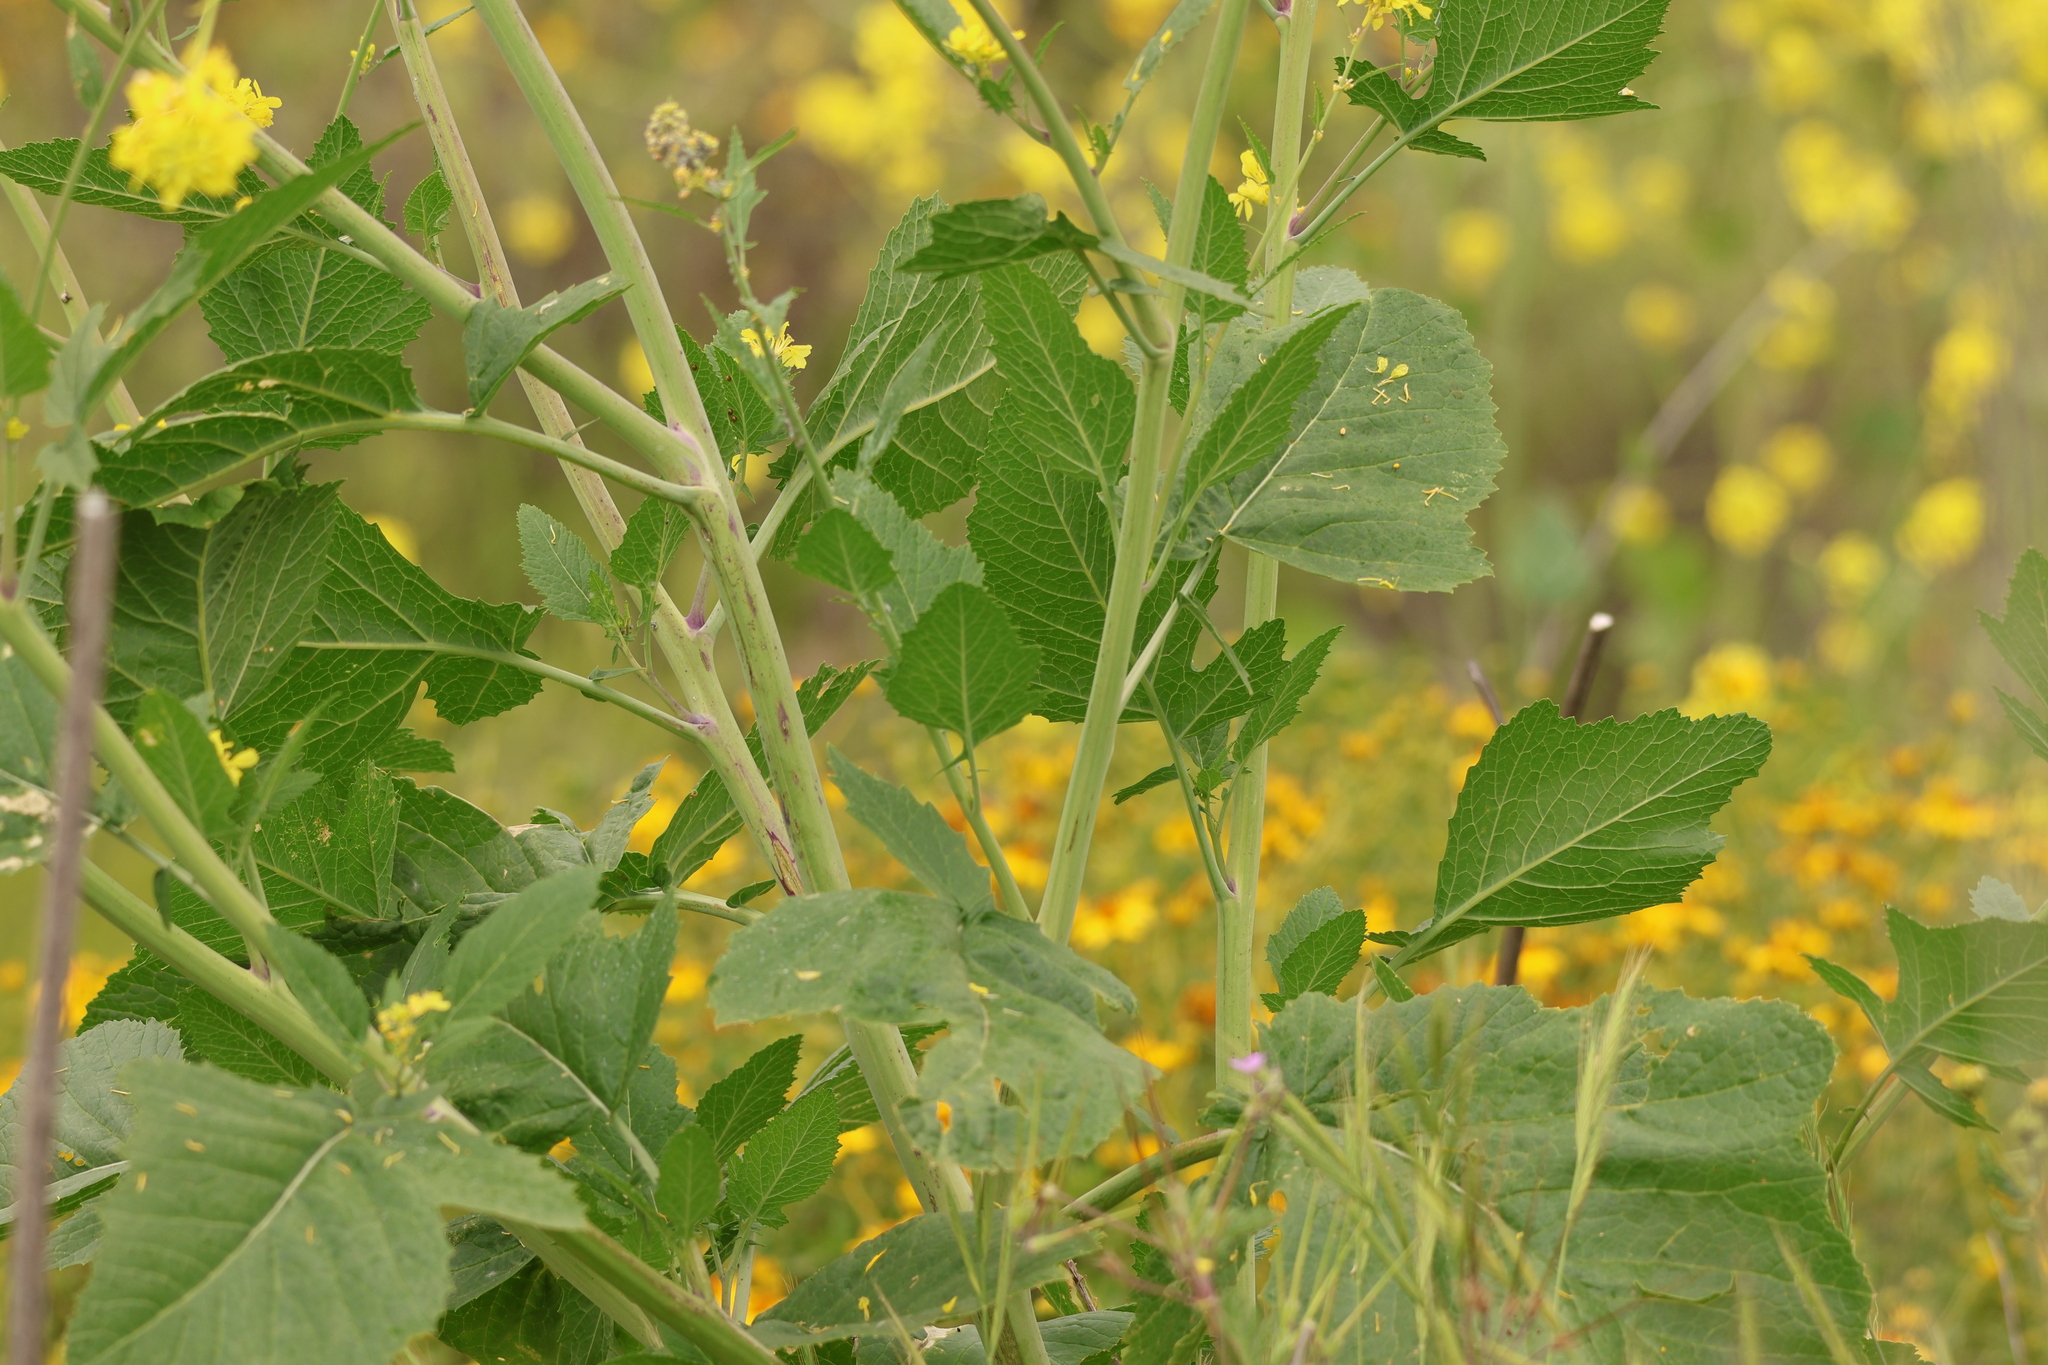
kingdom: Plantae
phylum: Tracheophyta
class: Magnoliopsida
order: Brassicales
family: Brassicaceae
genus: Brassica
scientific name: Brassica nigra
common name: Black mustard
